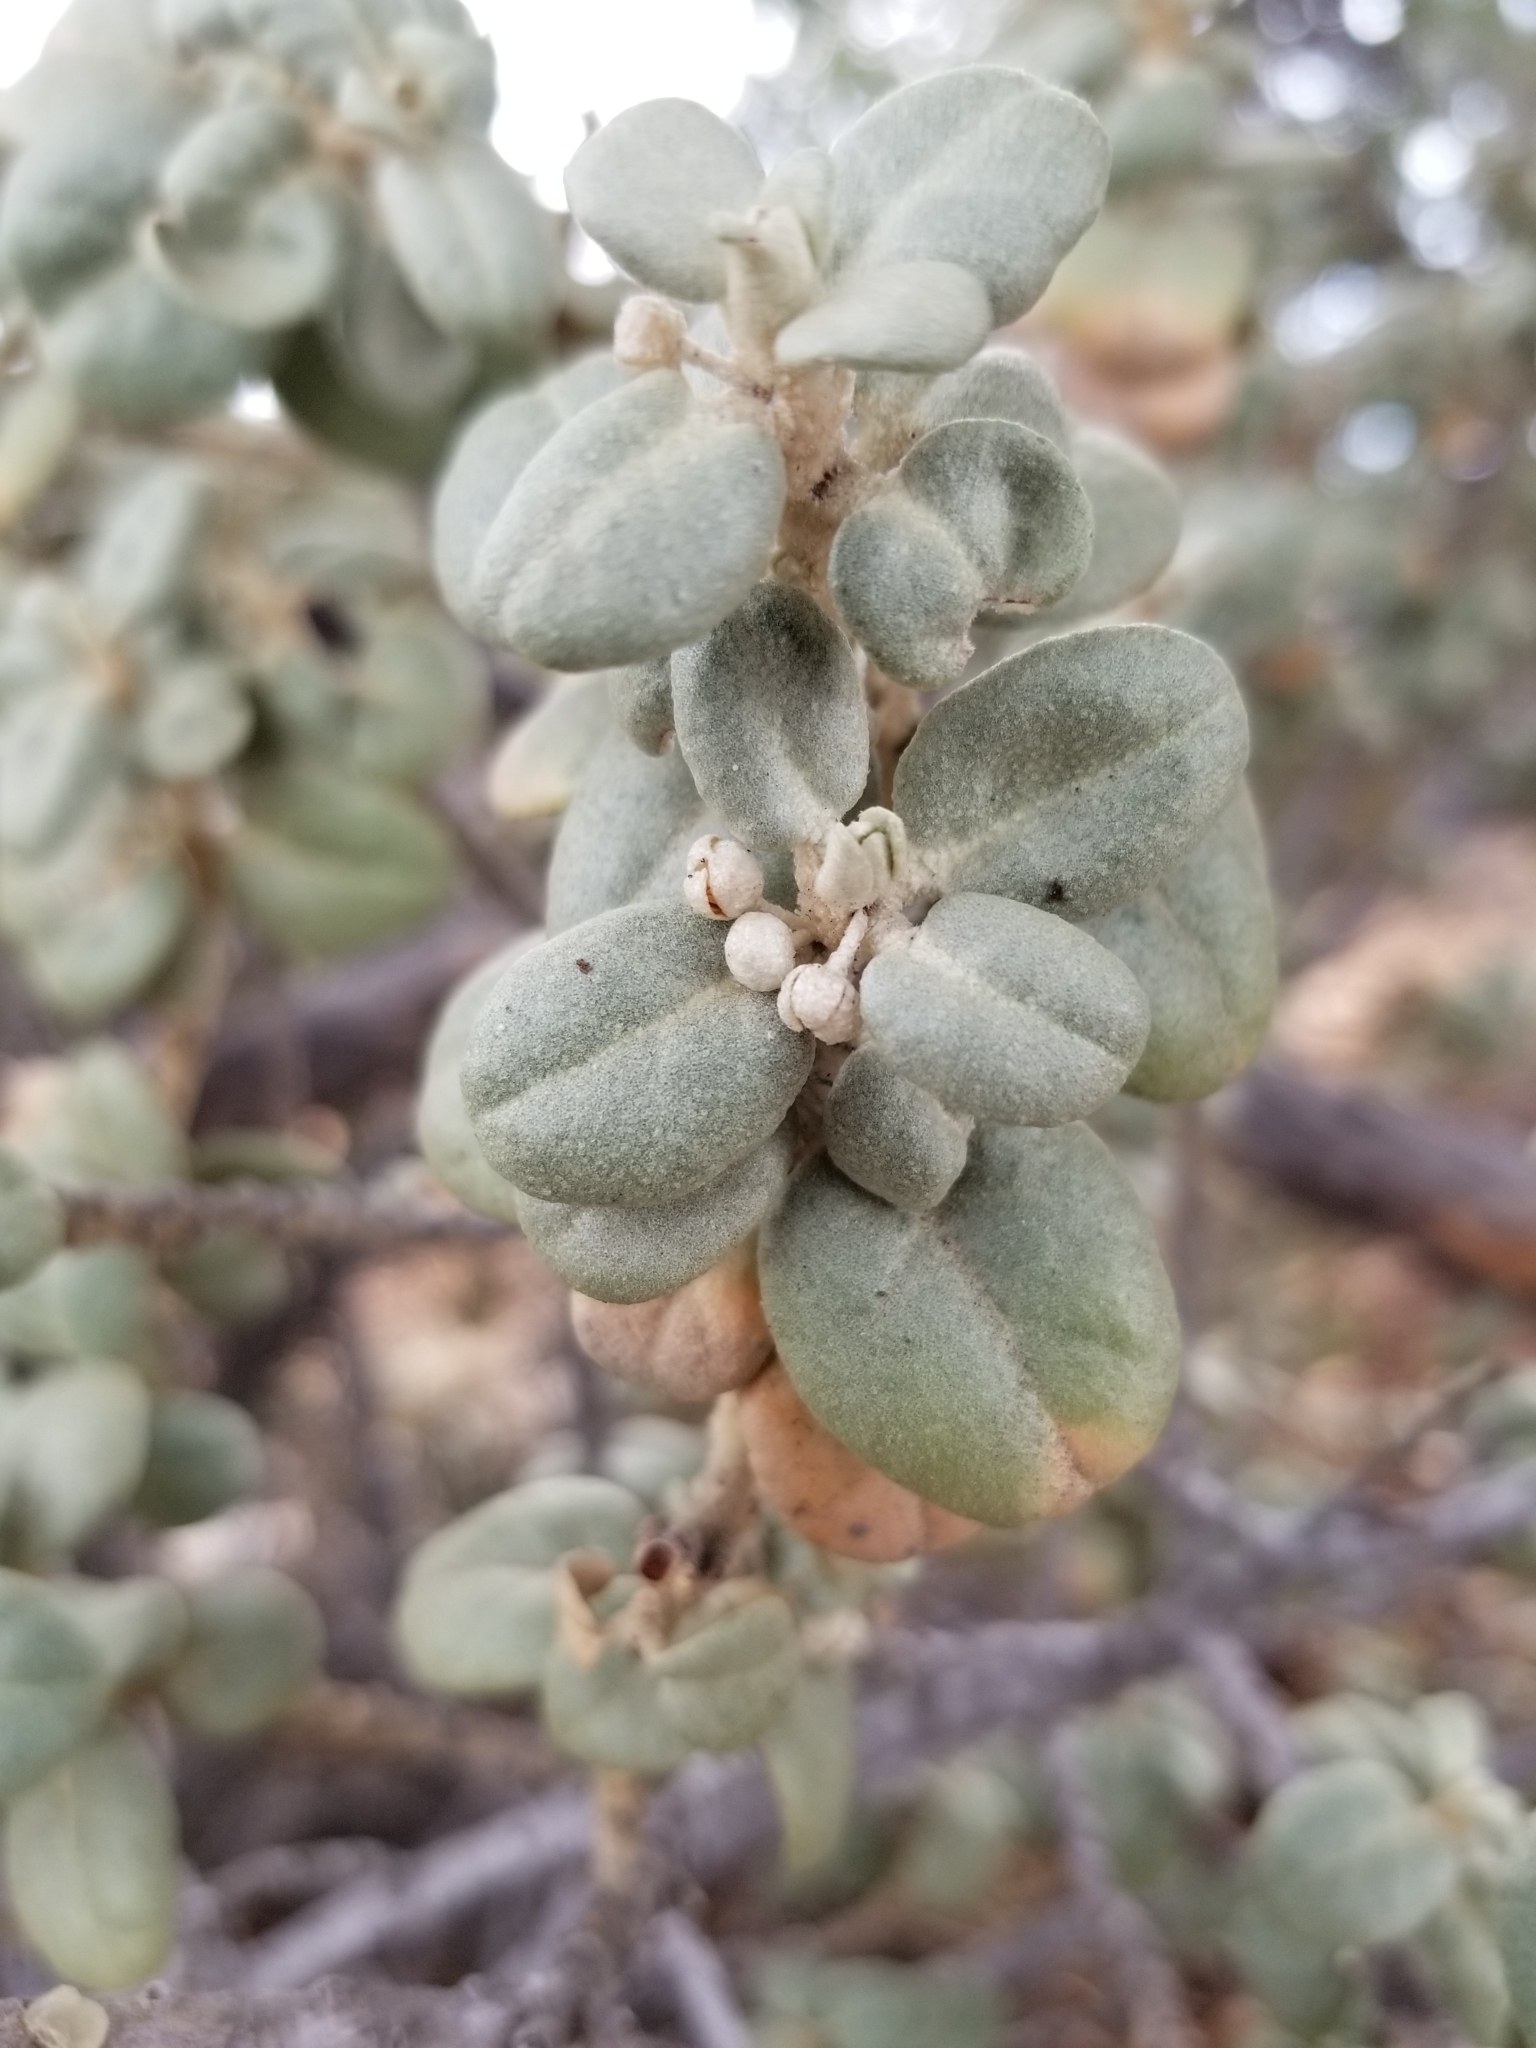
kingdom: Plantae
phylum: Tracheophyta
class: Magnoliopsida
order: Rosales
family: Elaeagnaceae
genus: Shepherdia
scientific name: Shepherdia rotundifolia
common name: Silverscale
